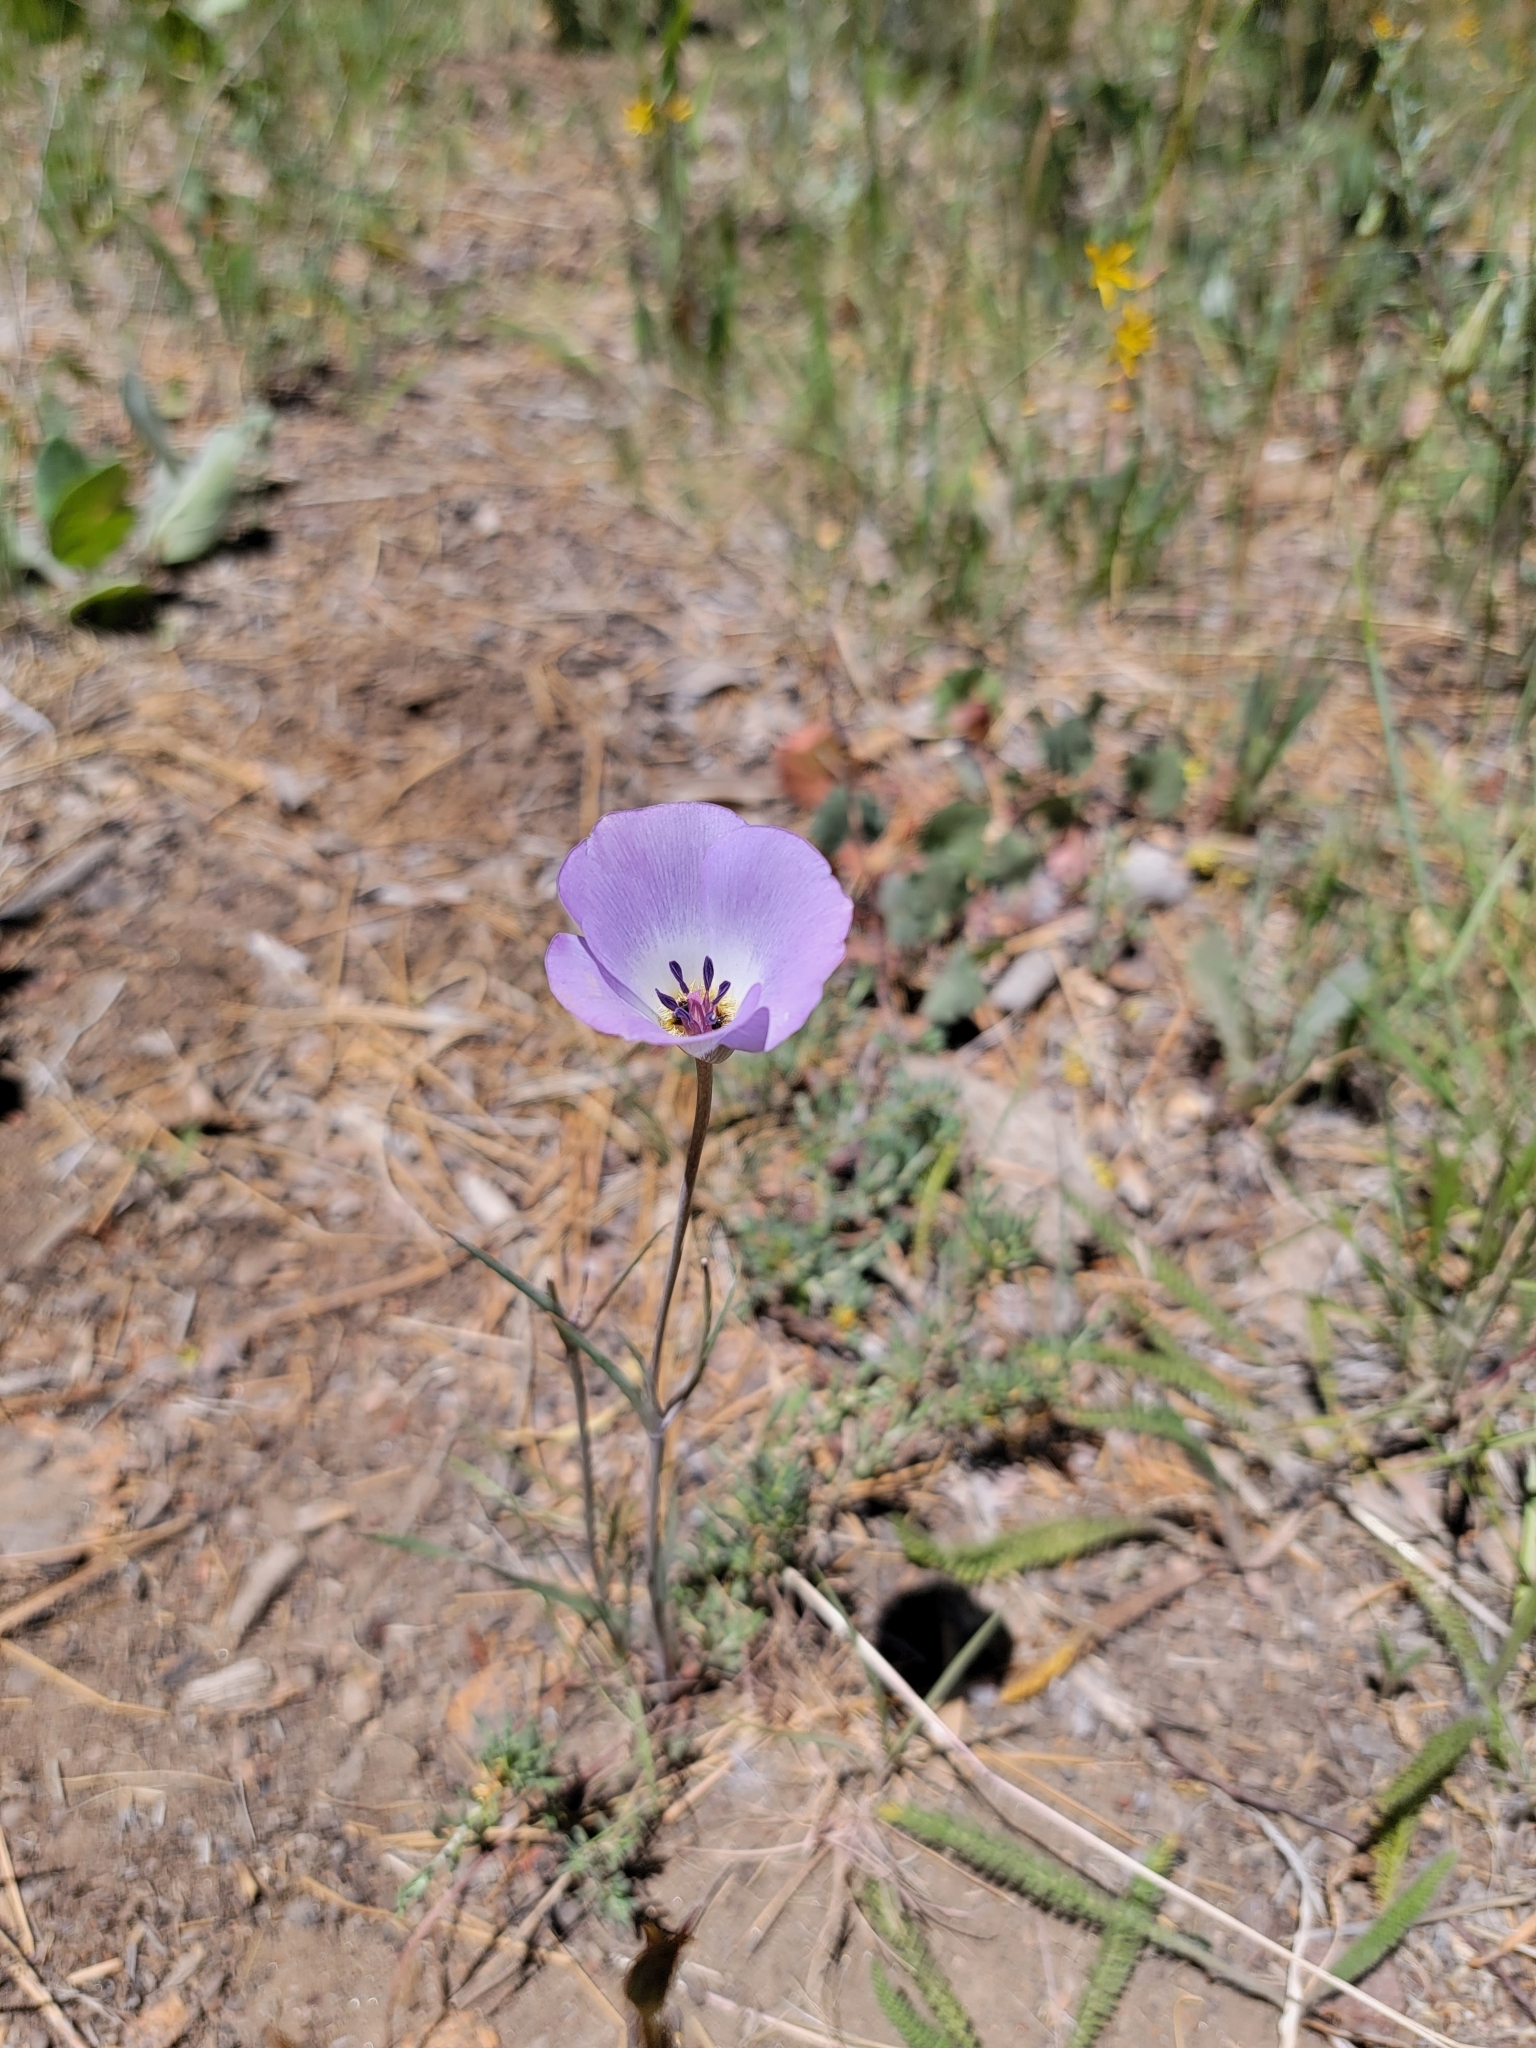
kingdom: Plantae
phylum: Tracheophyta
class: Liliopsida
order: Liliales
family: Liliaceae
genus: Calochortus
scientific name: Calochortus invenustus
